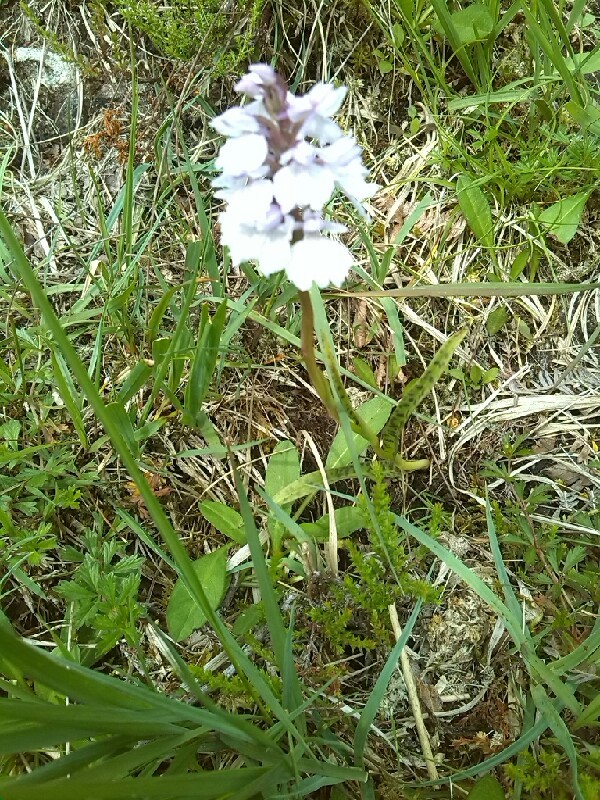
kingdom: Plantae
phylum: Tracheophyta
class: Liliopsida
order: Asparagales
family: Orchidaceae
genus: Dactylorhiza
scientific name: Dactylorhiza maculata
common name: Heath spotted-orchid
